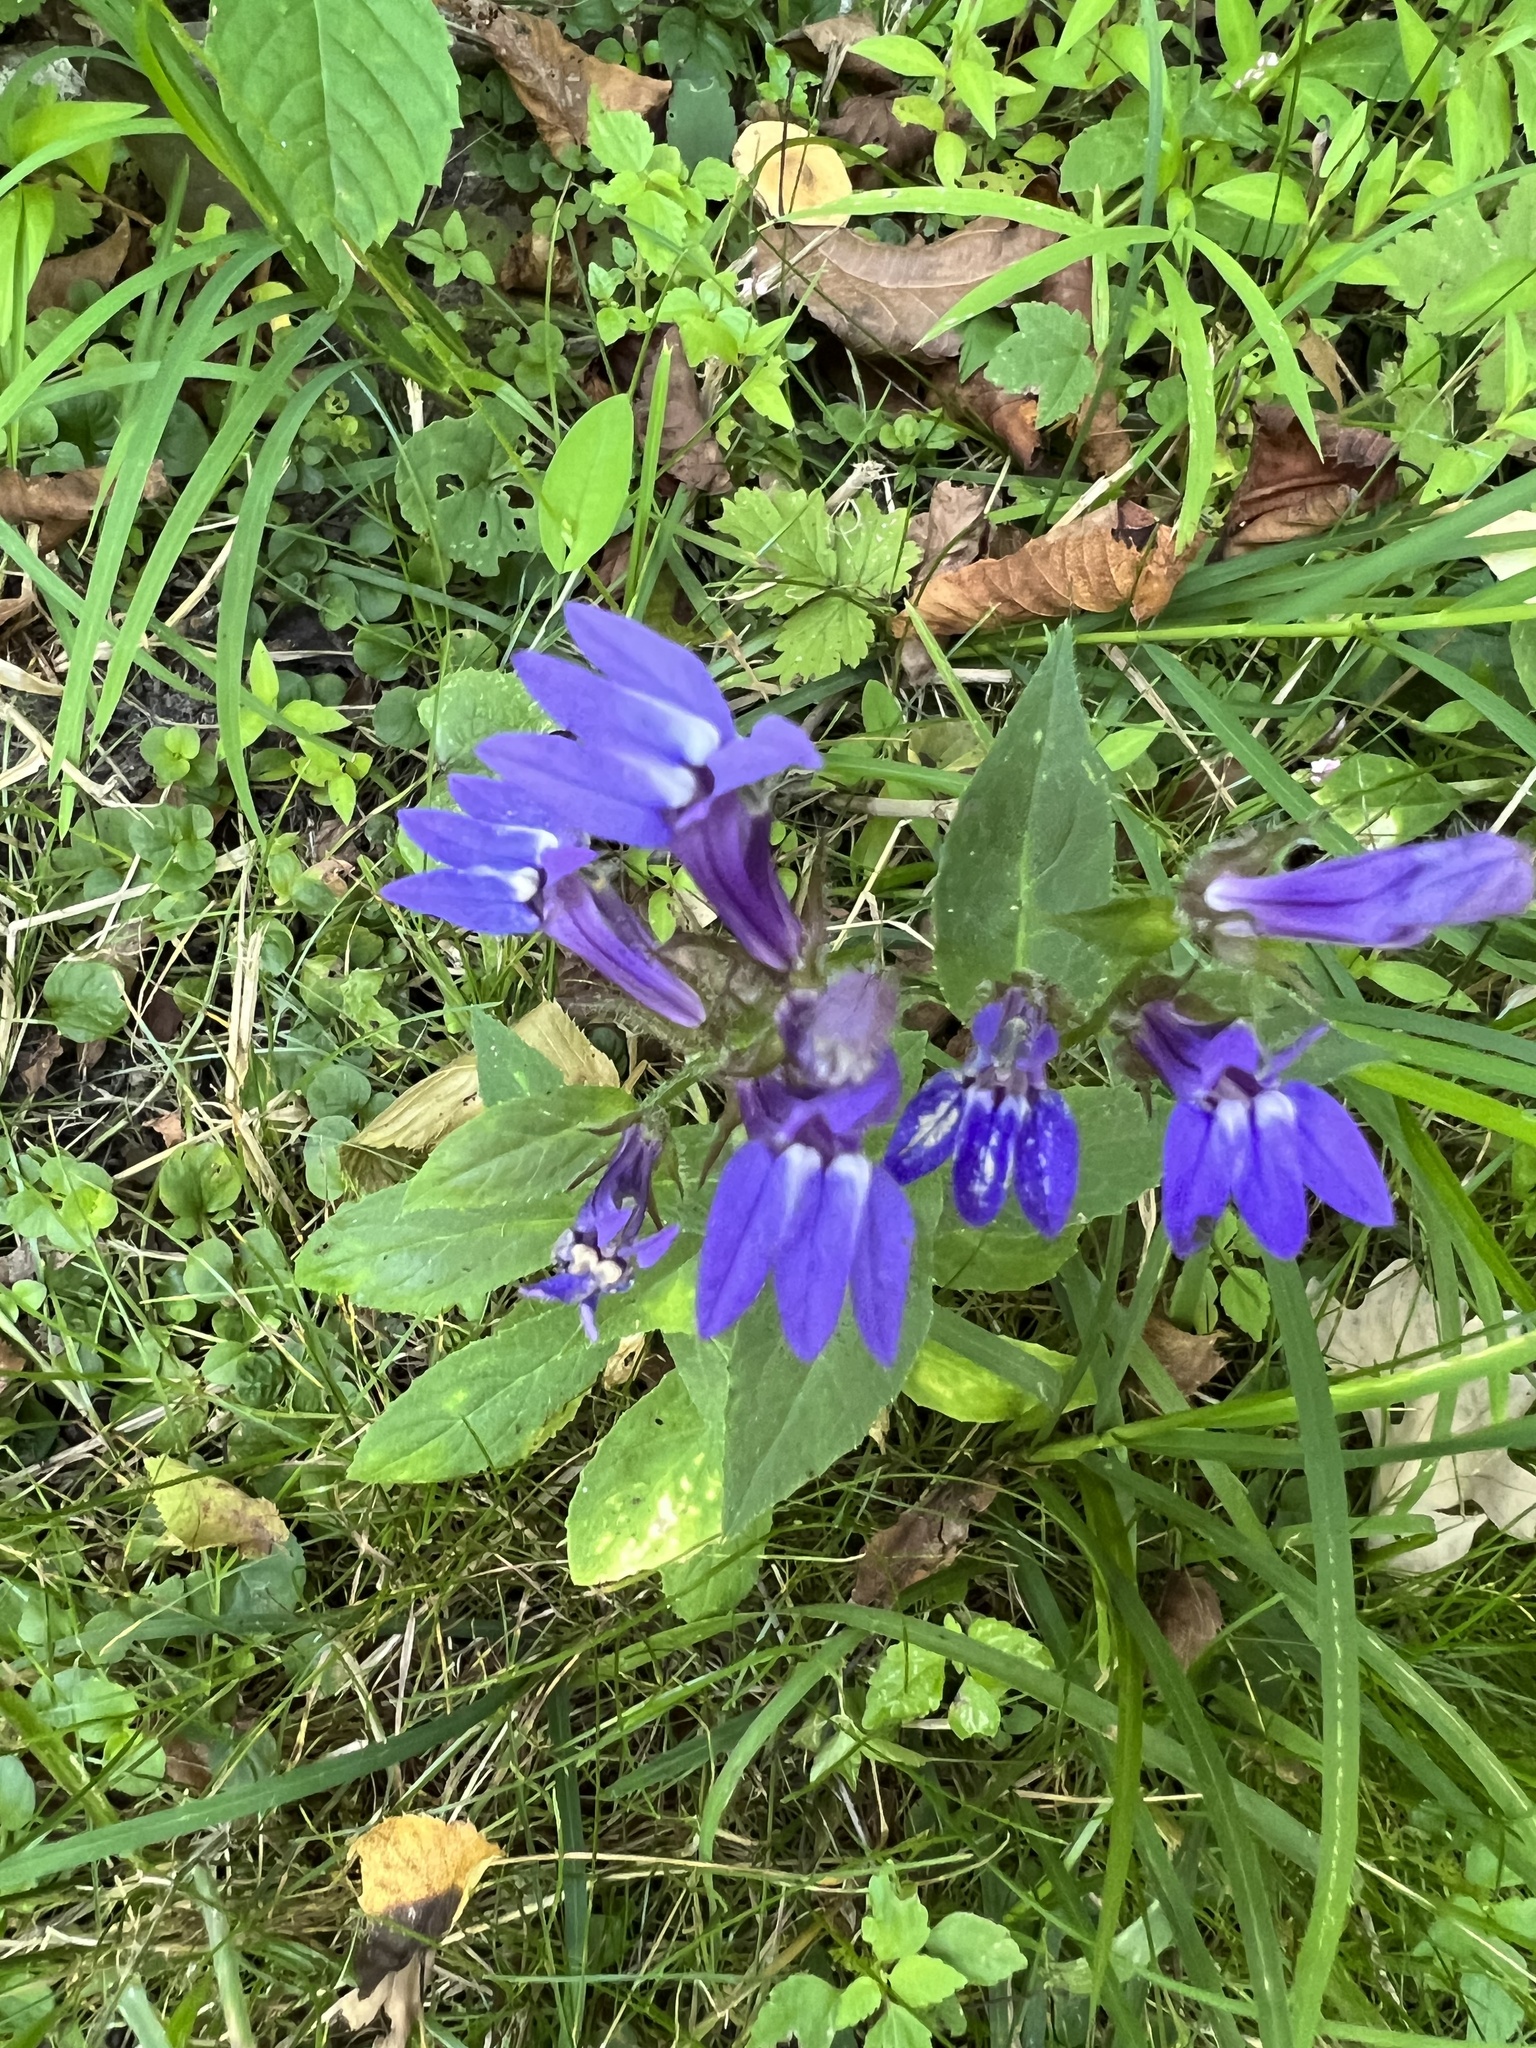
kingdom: Plantae
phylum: Tracheophyta
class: Magnoliopsida
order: Asterales
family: Campanulaceae
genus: Lobelia
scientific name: Lobelia siphilitica
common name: Great lobelia
